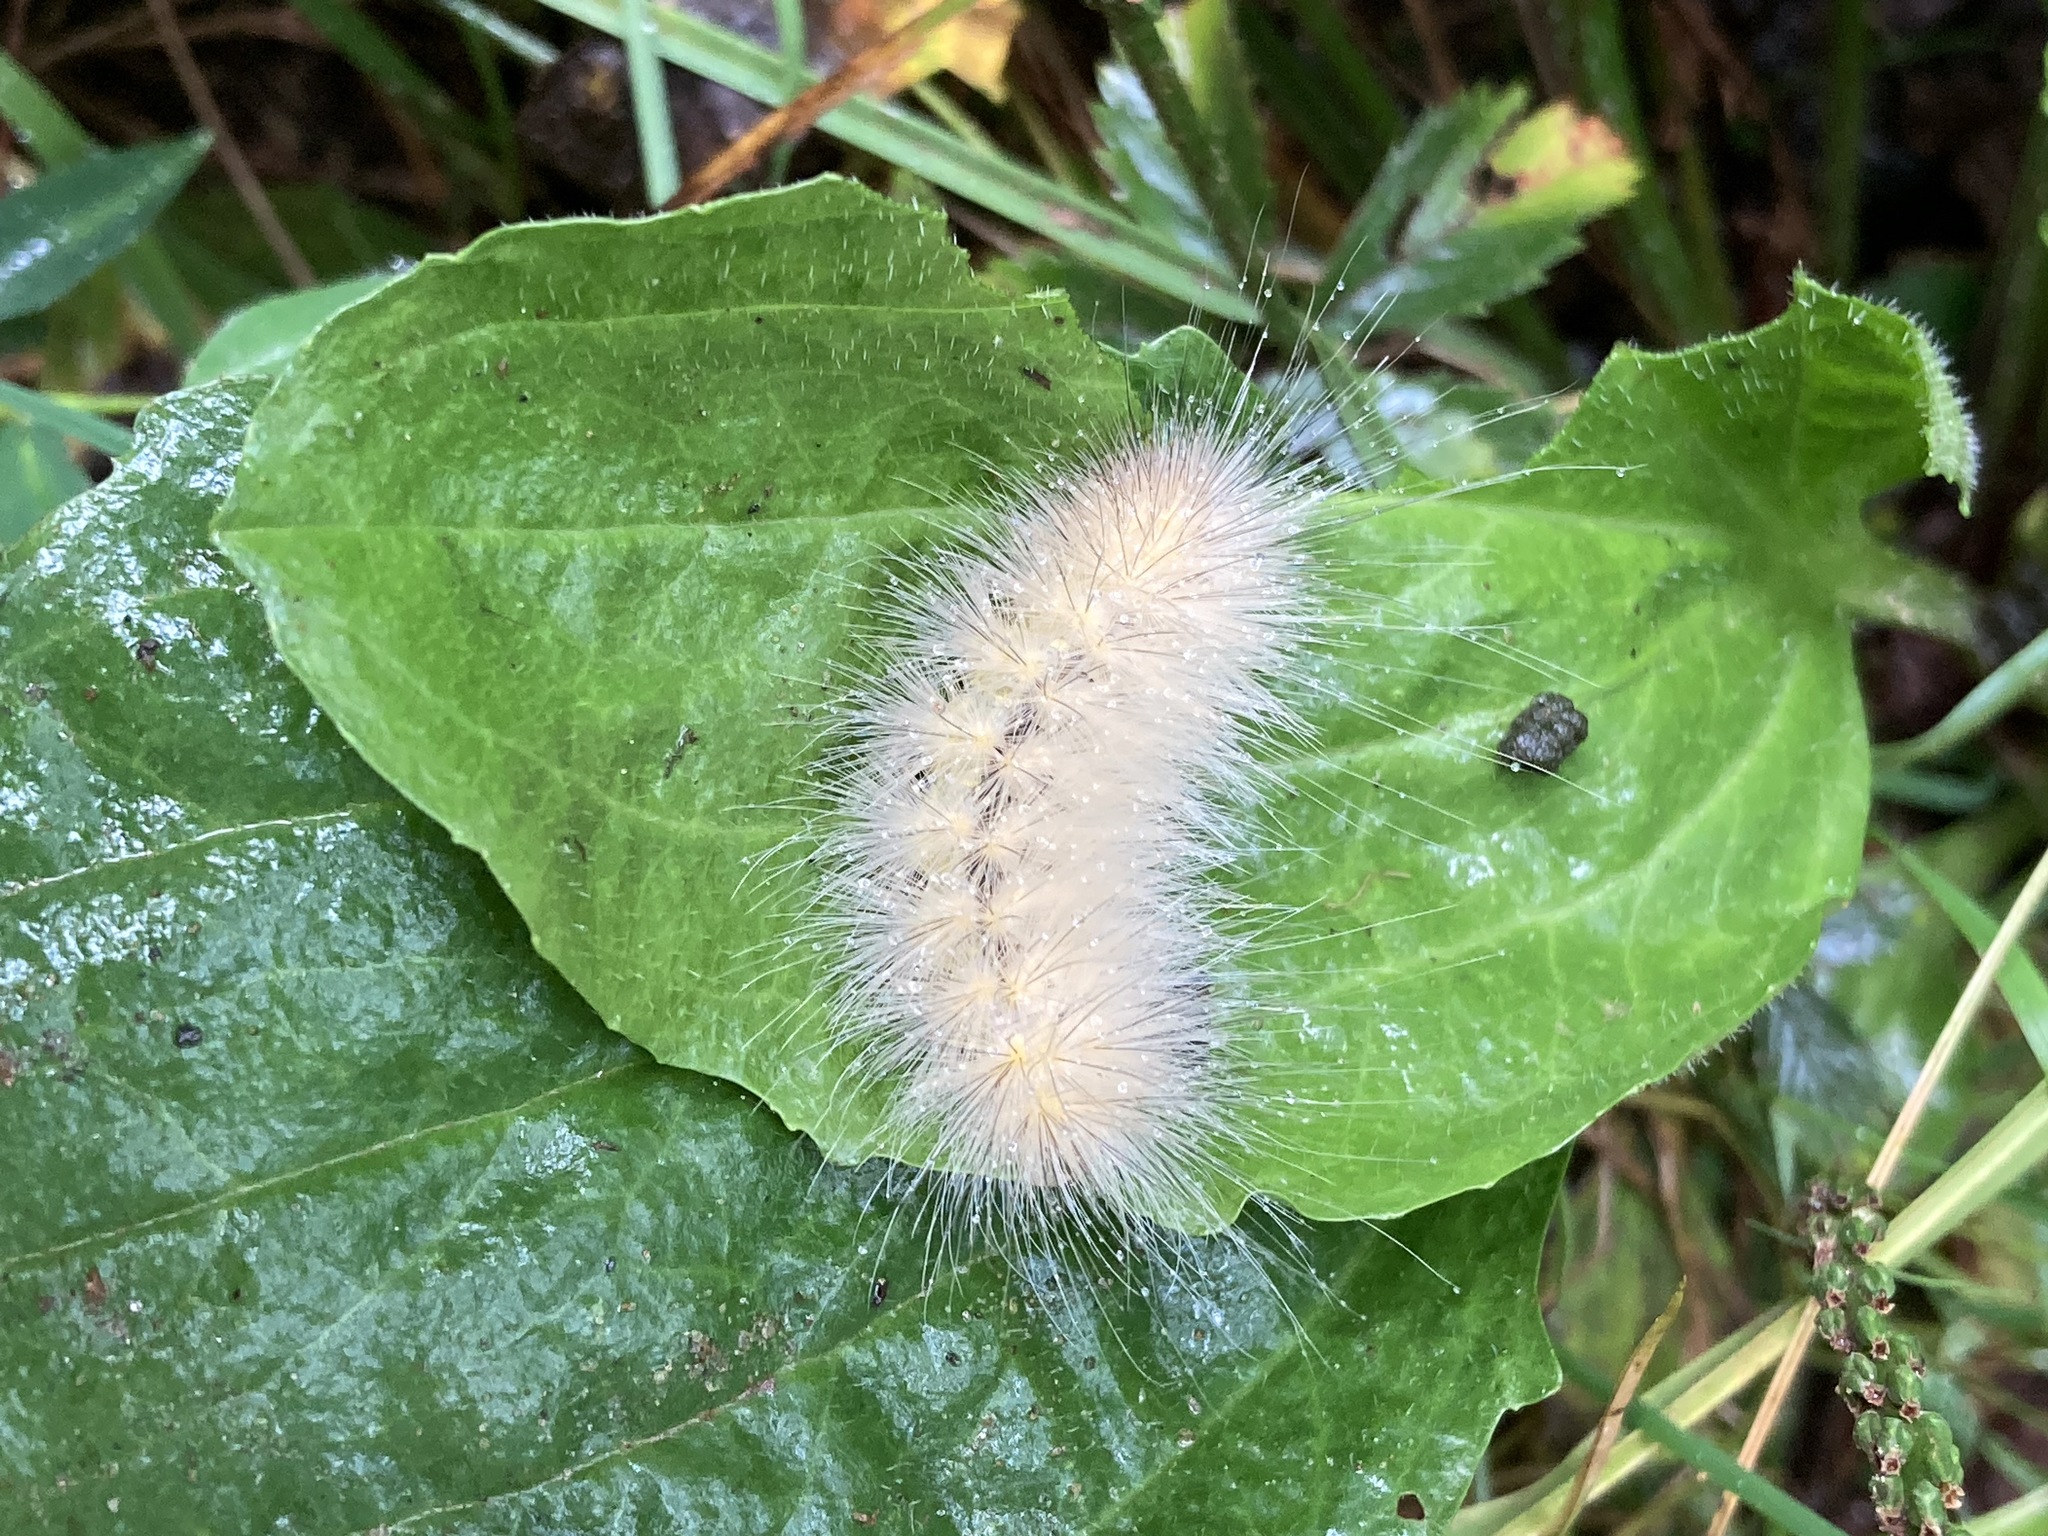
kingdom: Animalia
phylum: Arthropoda
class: Insecta
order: Lepidoptera
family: Erebidae
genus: Spilosoma
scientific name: Spilosoma virginica
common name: Virginia tiger moth
